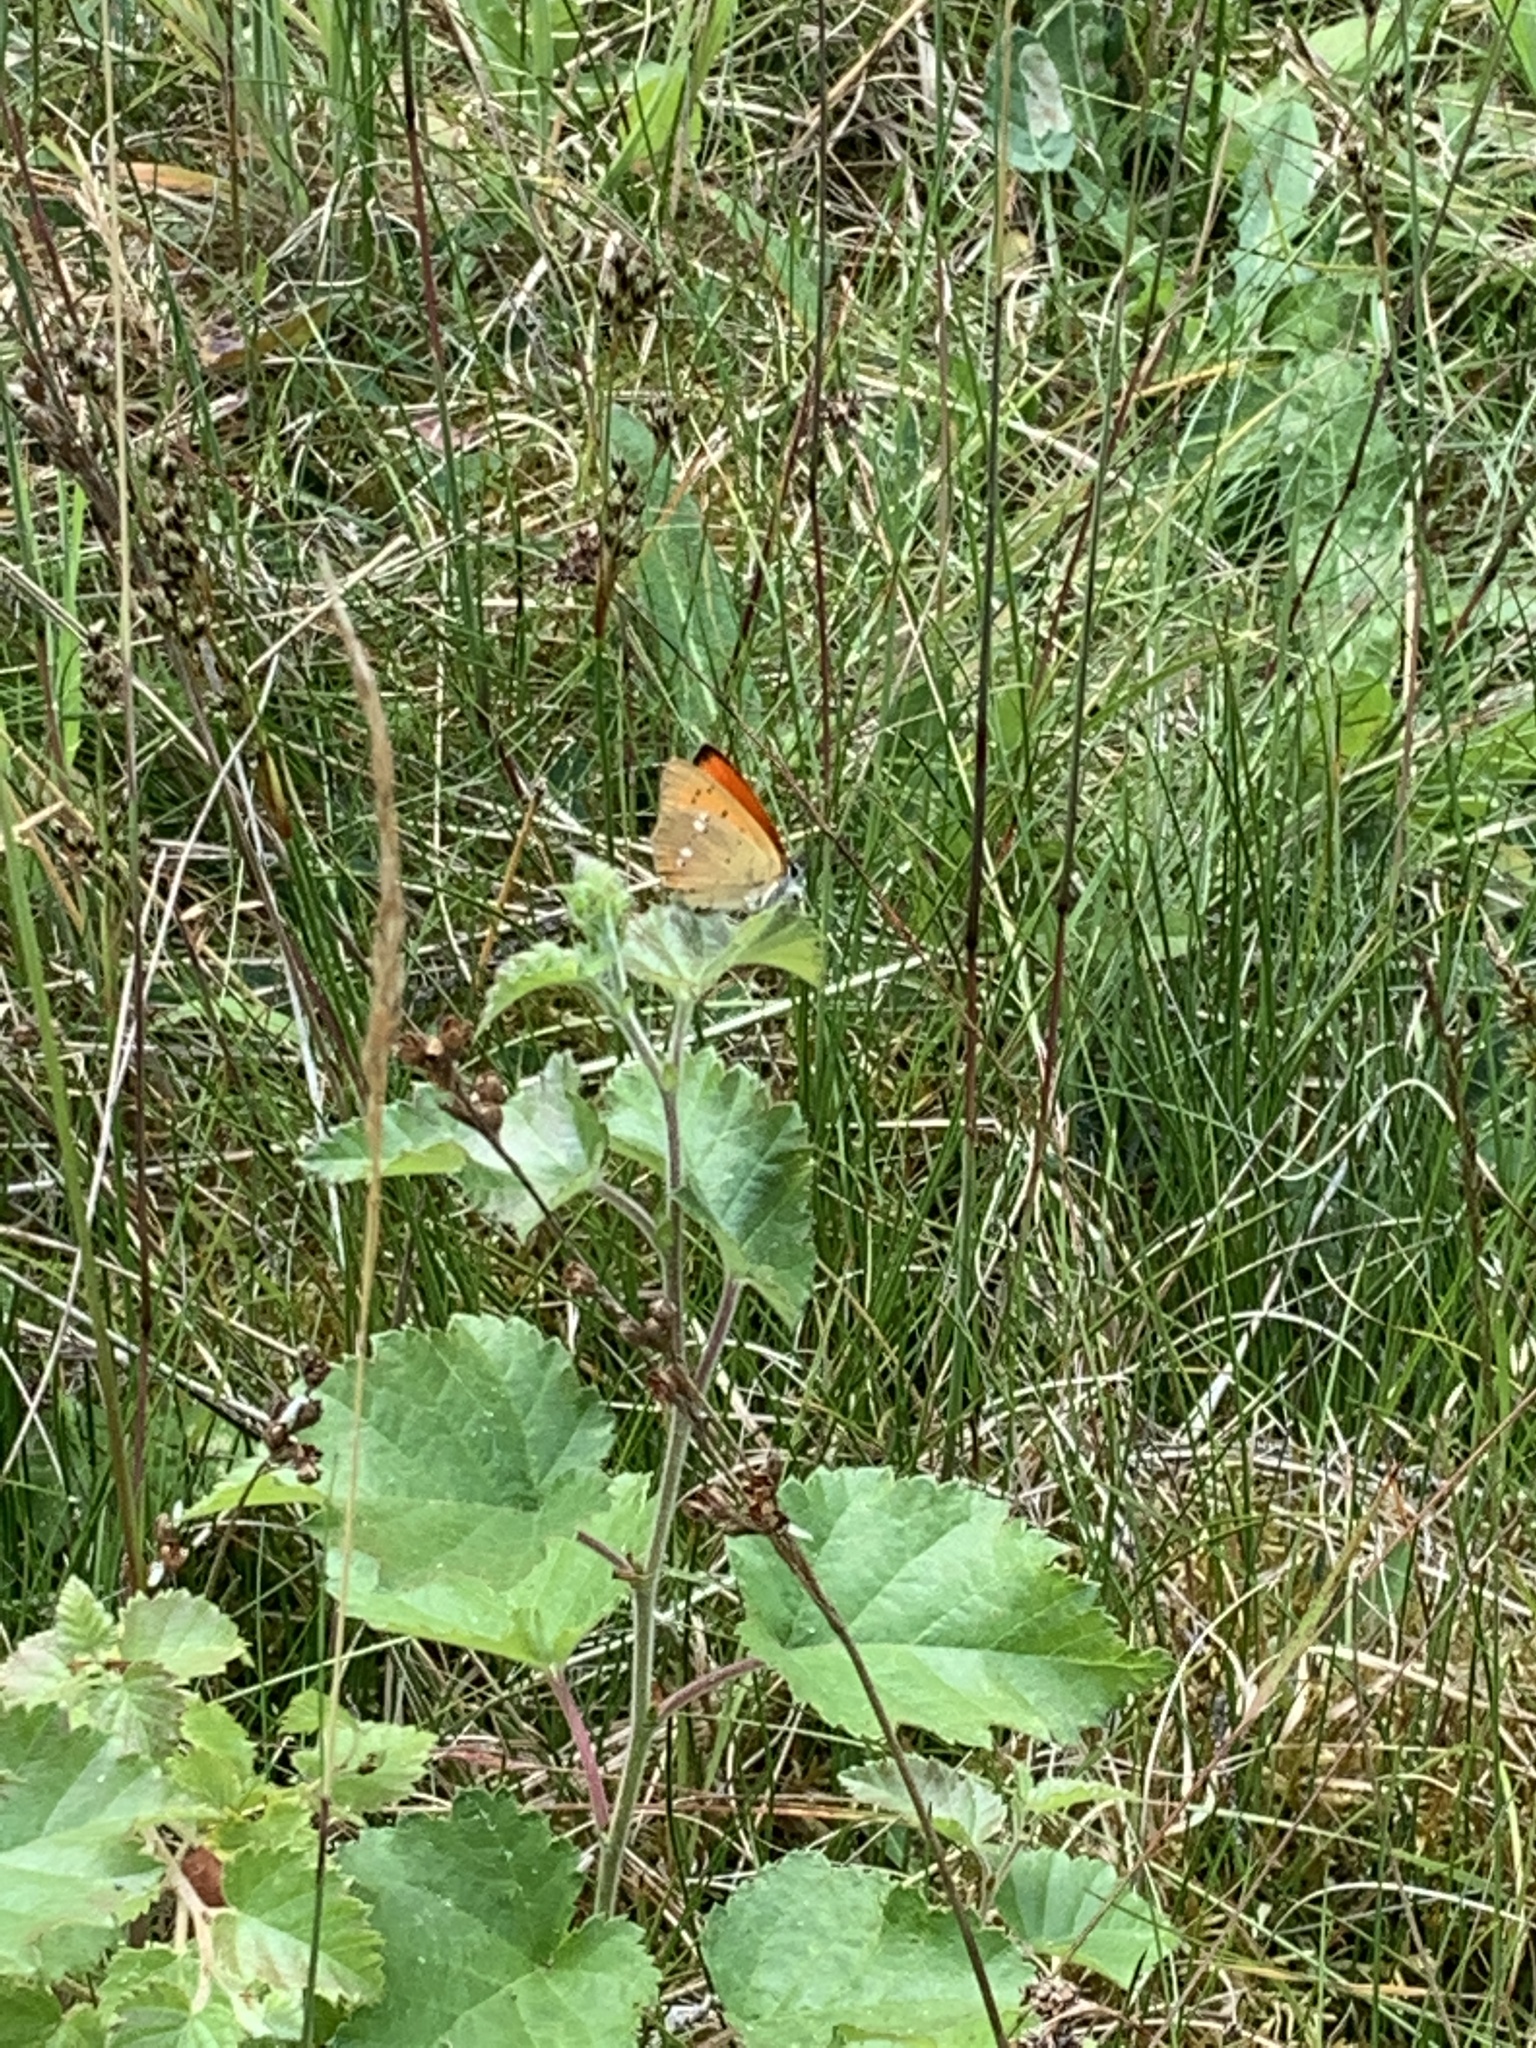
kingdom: Animalia
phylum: Arthropoda
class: Insecta
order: Lepidoptera
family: Lycaenidae
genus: Lycaena
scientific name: Lycaena virgaureae
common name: Scarce copper
